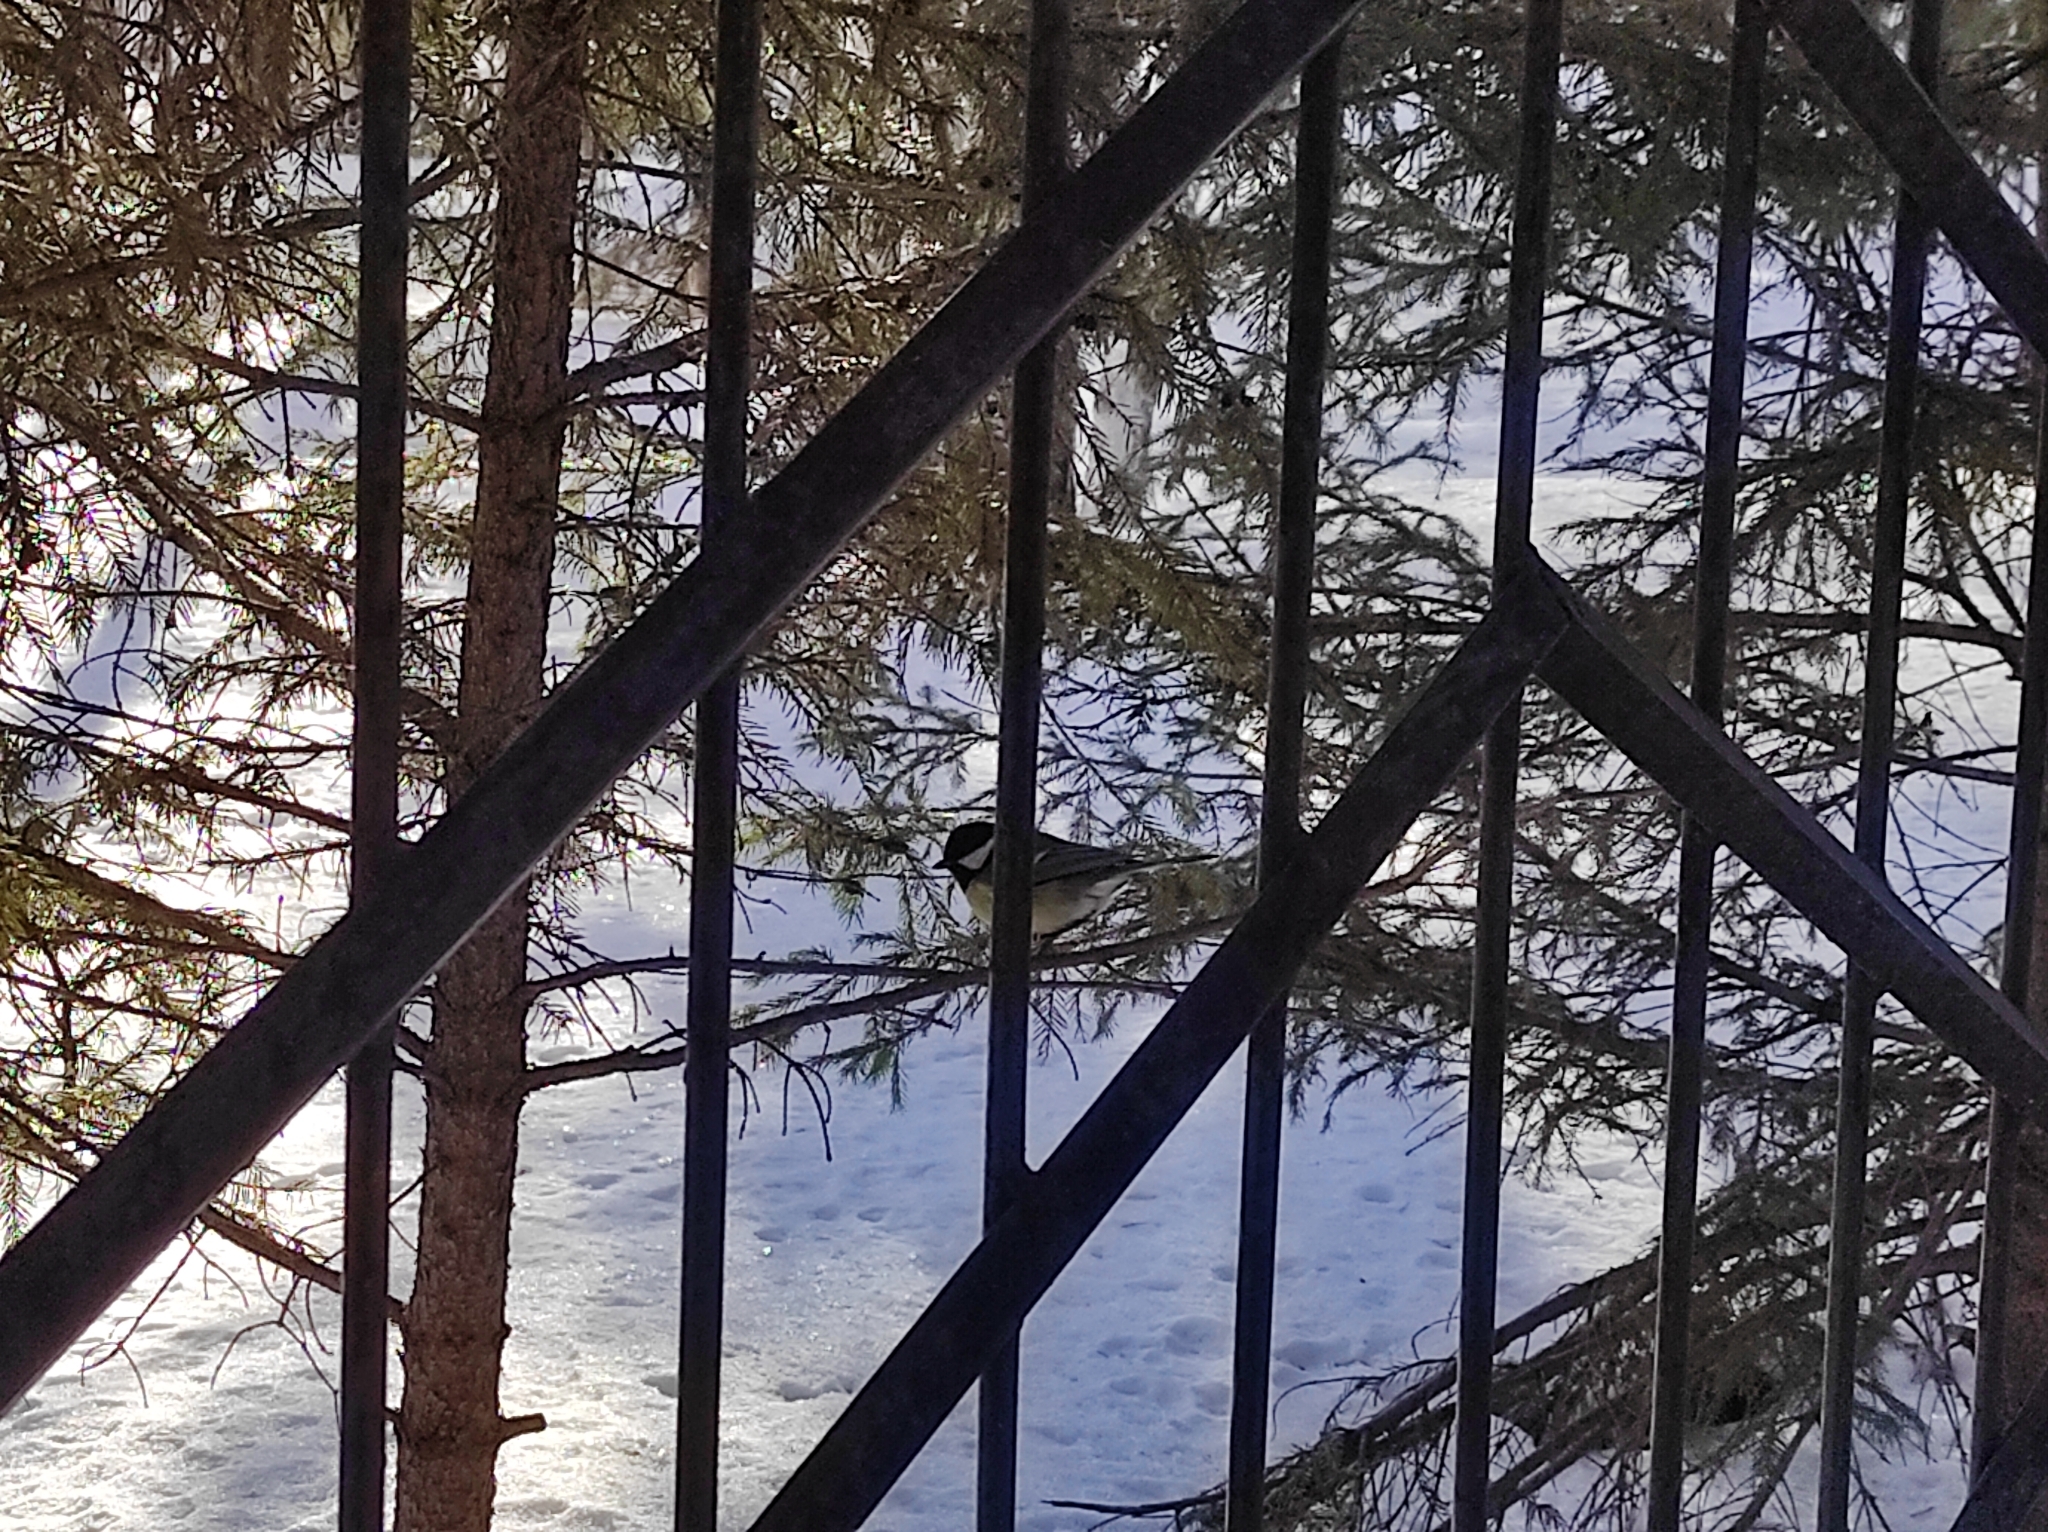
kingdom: Animalia
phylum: Chordata
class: Aves
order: Passeriformes
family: Paridae
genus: Parus
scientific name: Parus major
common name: Great tit
